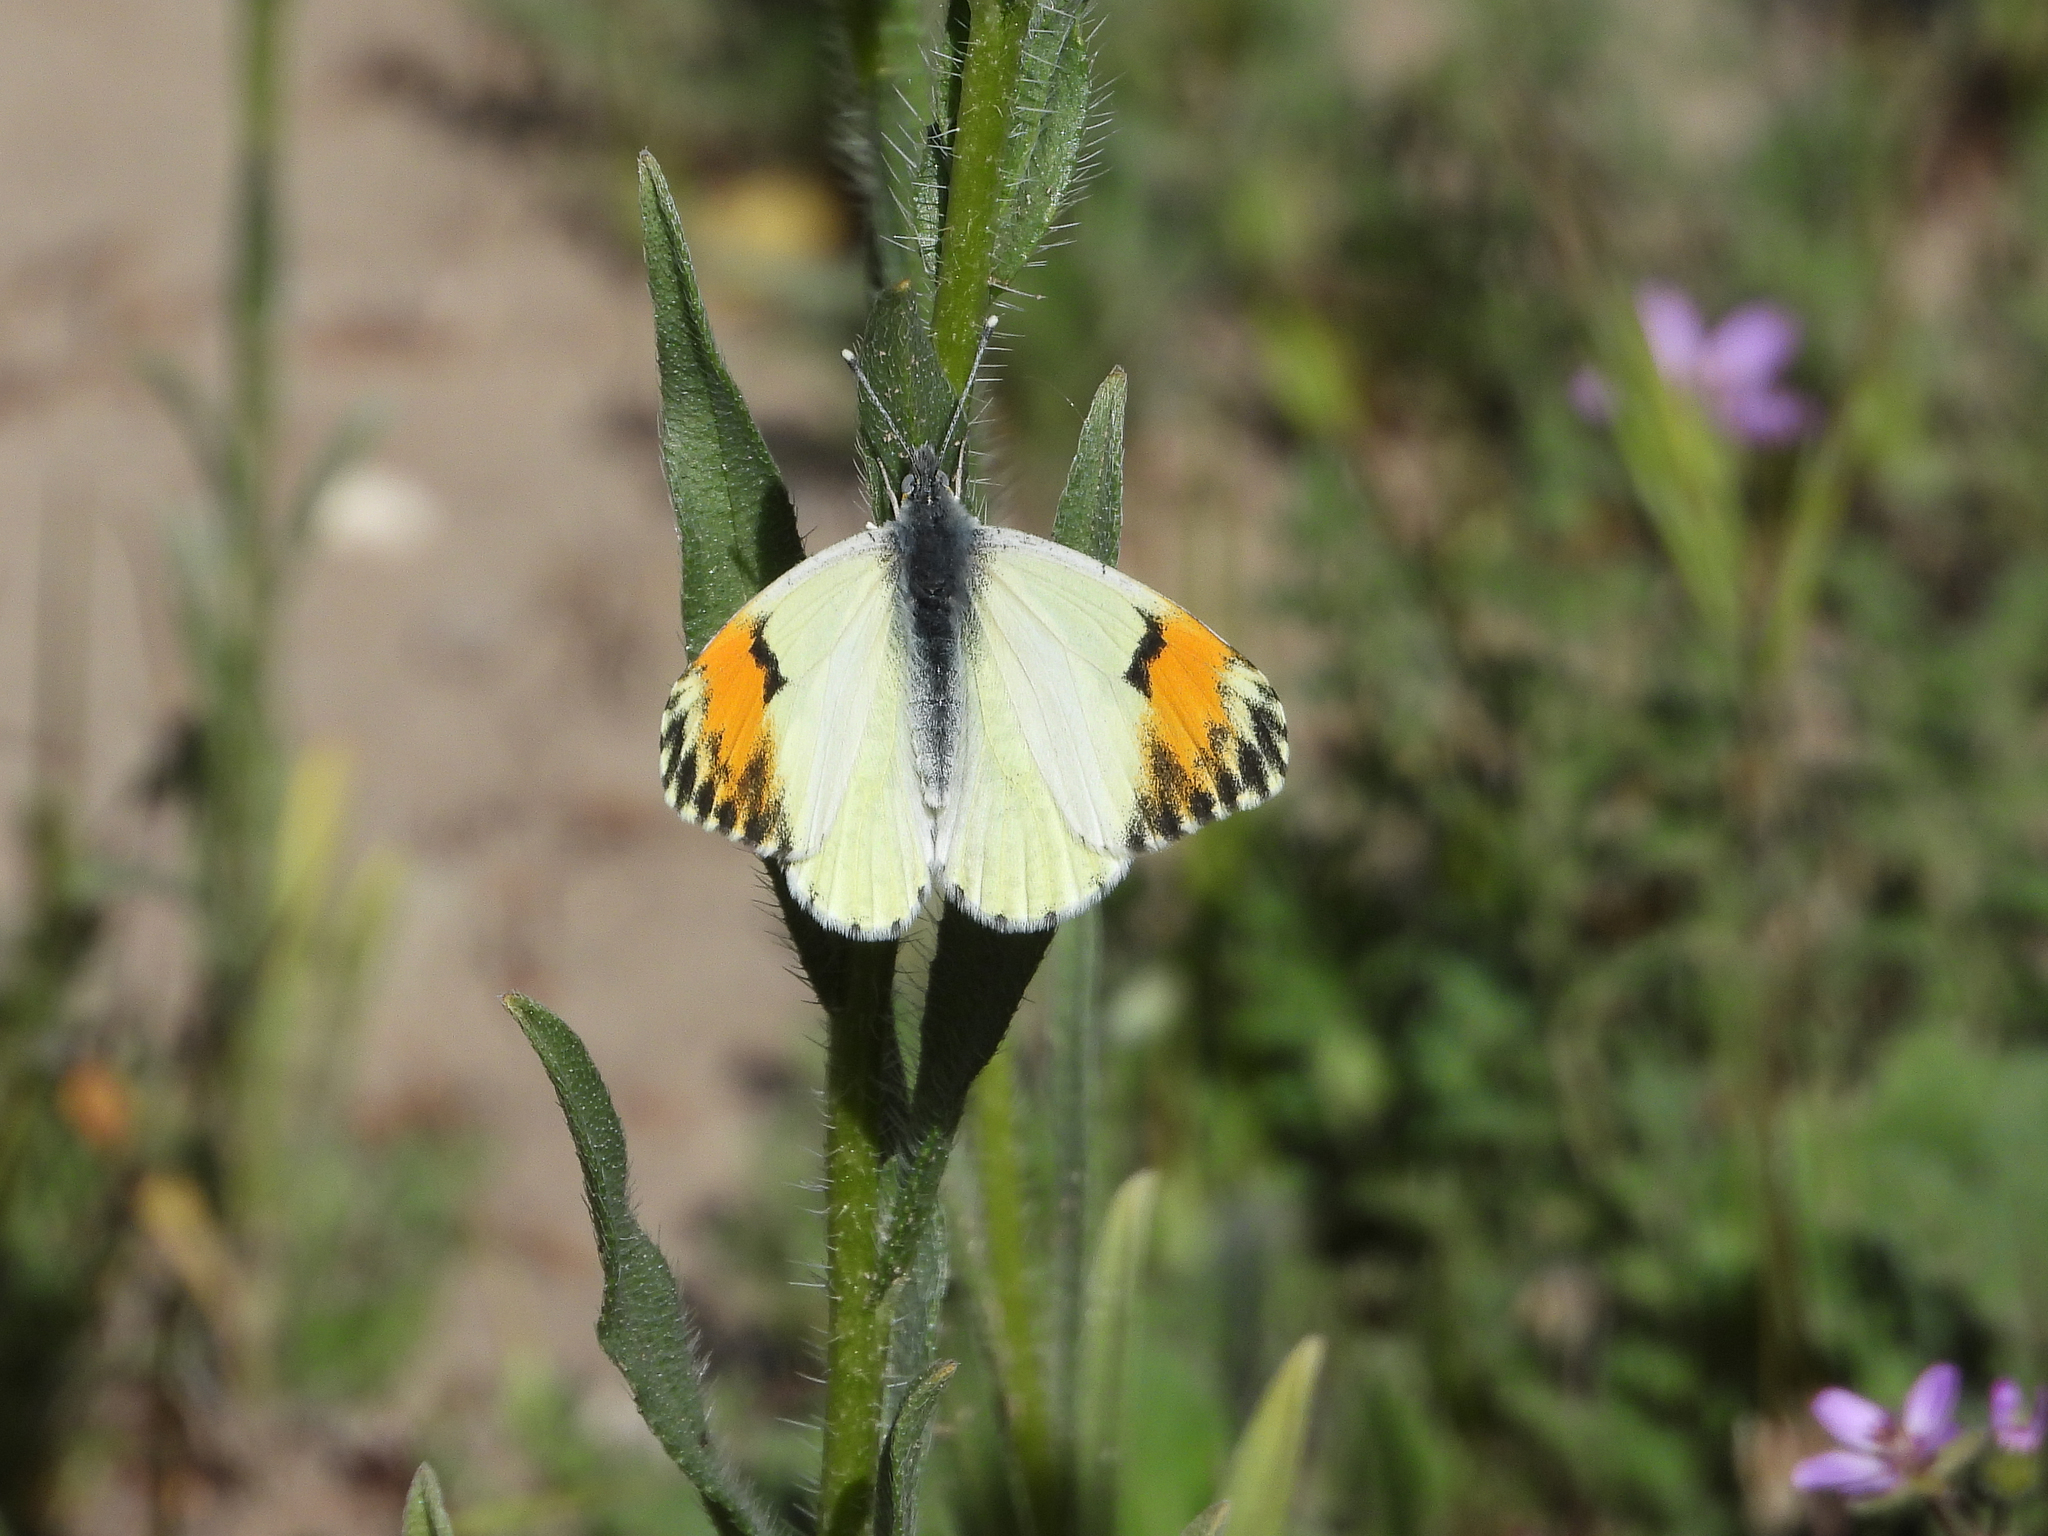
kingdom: Animalia
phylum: Arthropoda
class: Insecta
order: Lepidoptera
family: Pieridae
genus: Anthocharis
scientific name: Anthocharis sara
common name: Sara's orangetip
